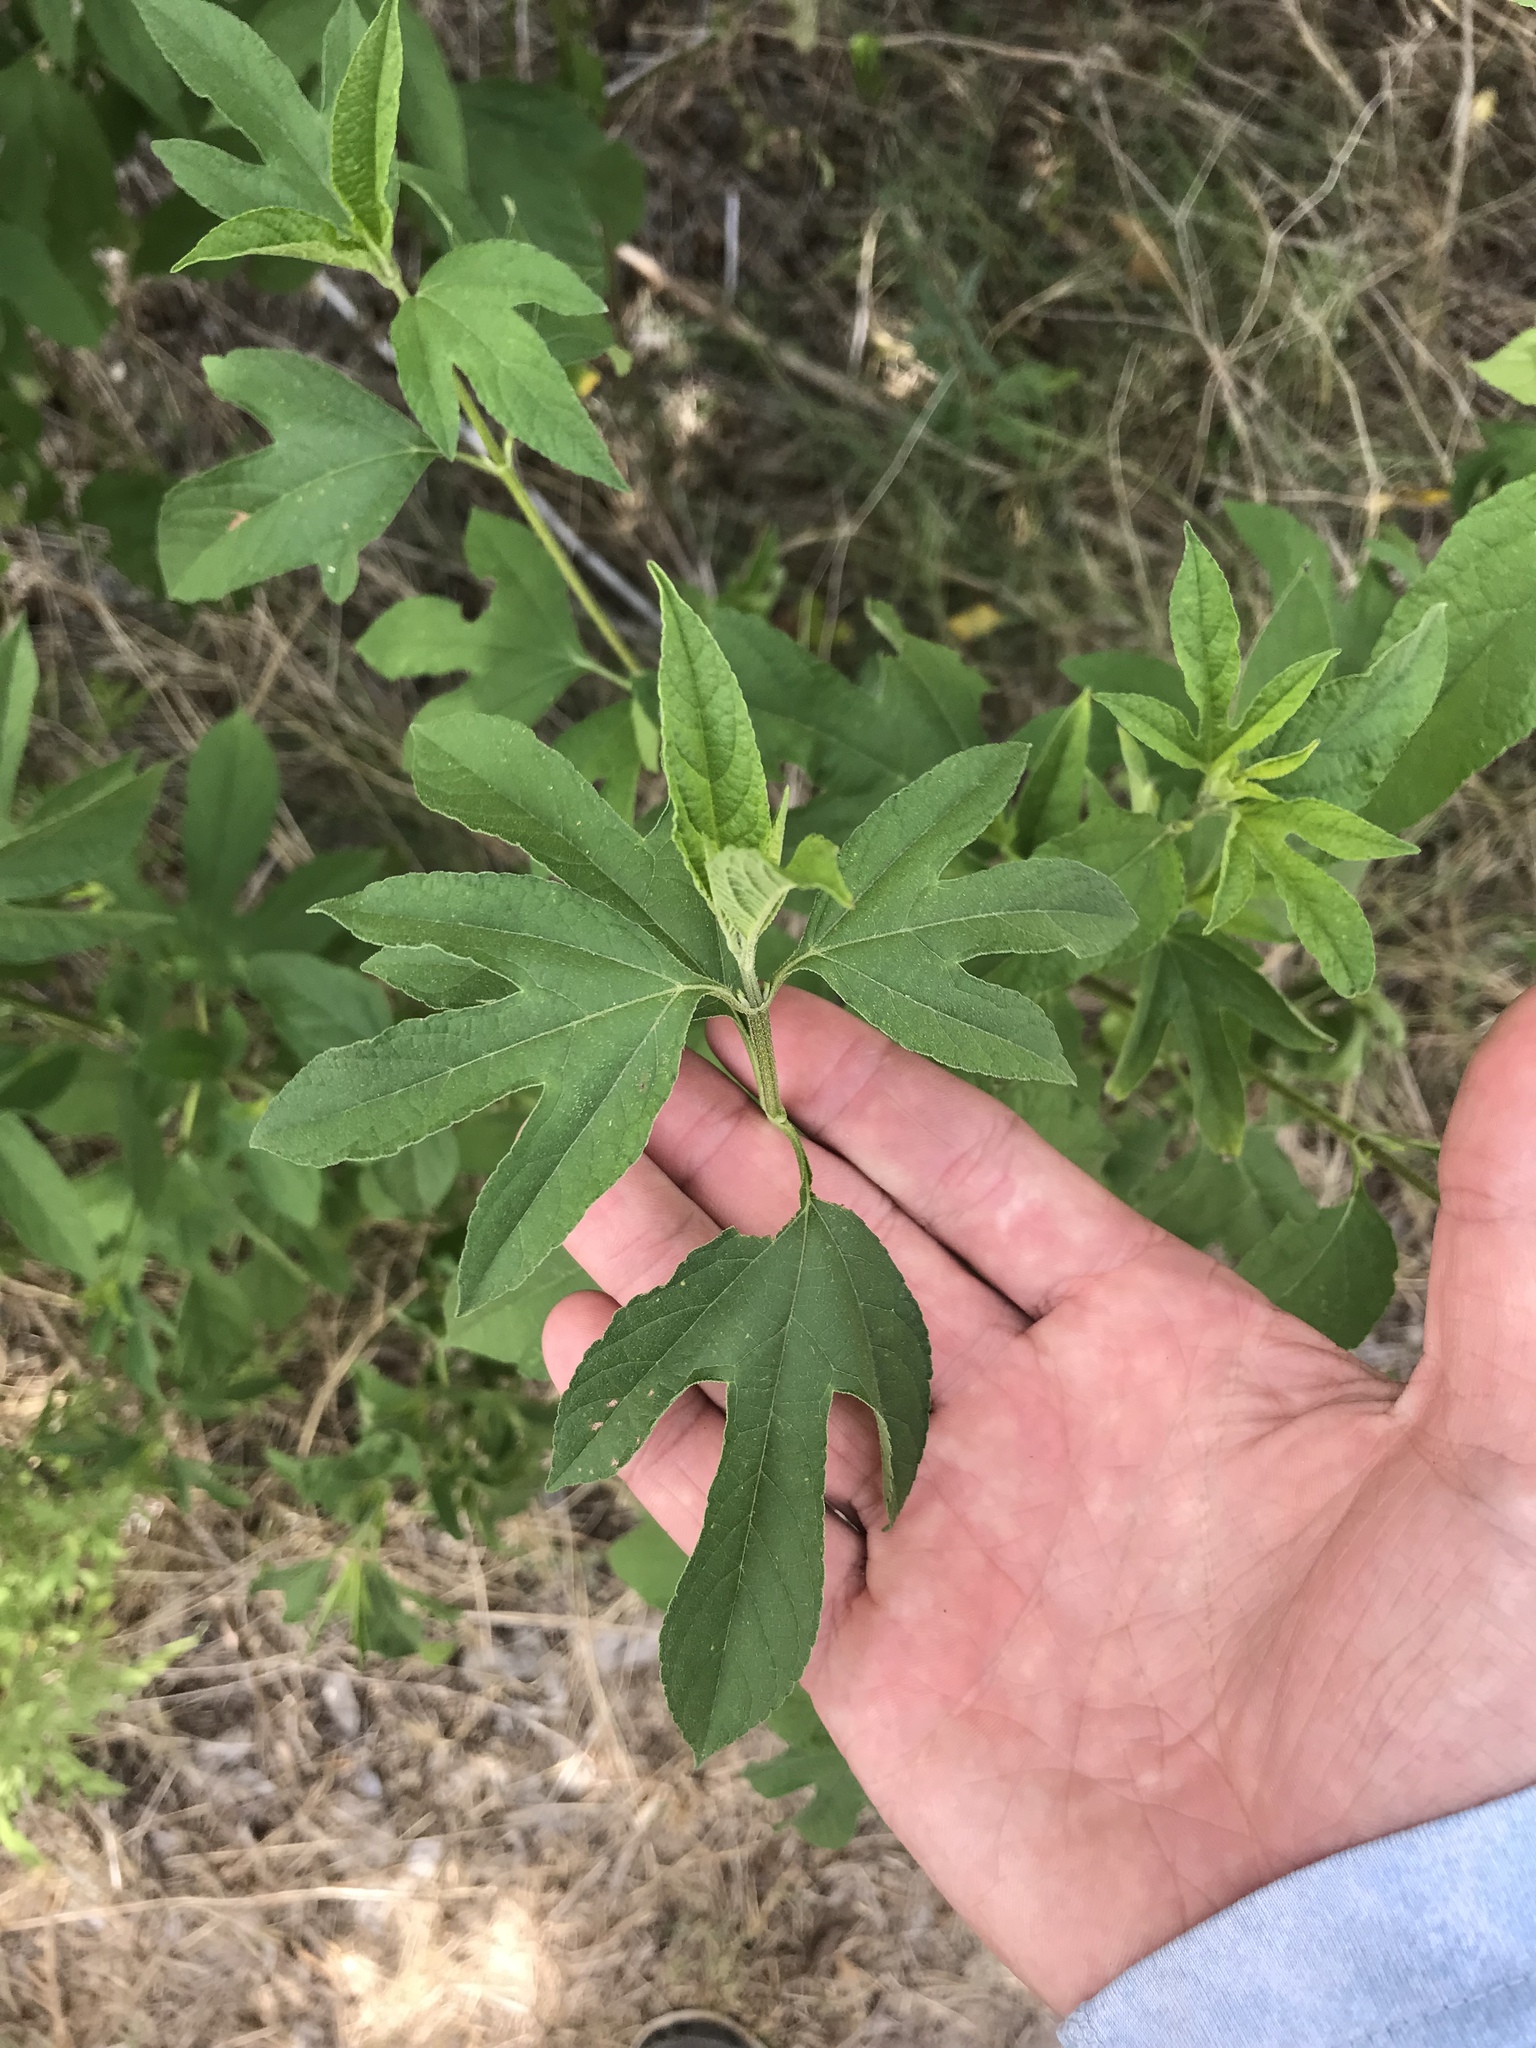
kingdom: Plantae
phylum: Tracheophyta
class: Magnoliopsida
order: Asterales
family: Asteraceae
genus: Ambrosia
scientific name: Ambrosia trifida
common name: Giant ragweed
